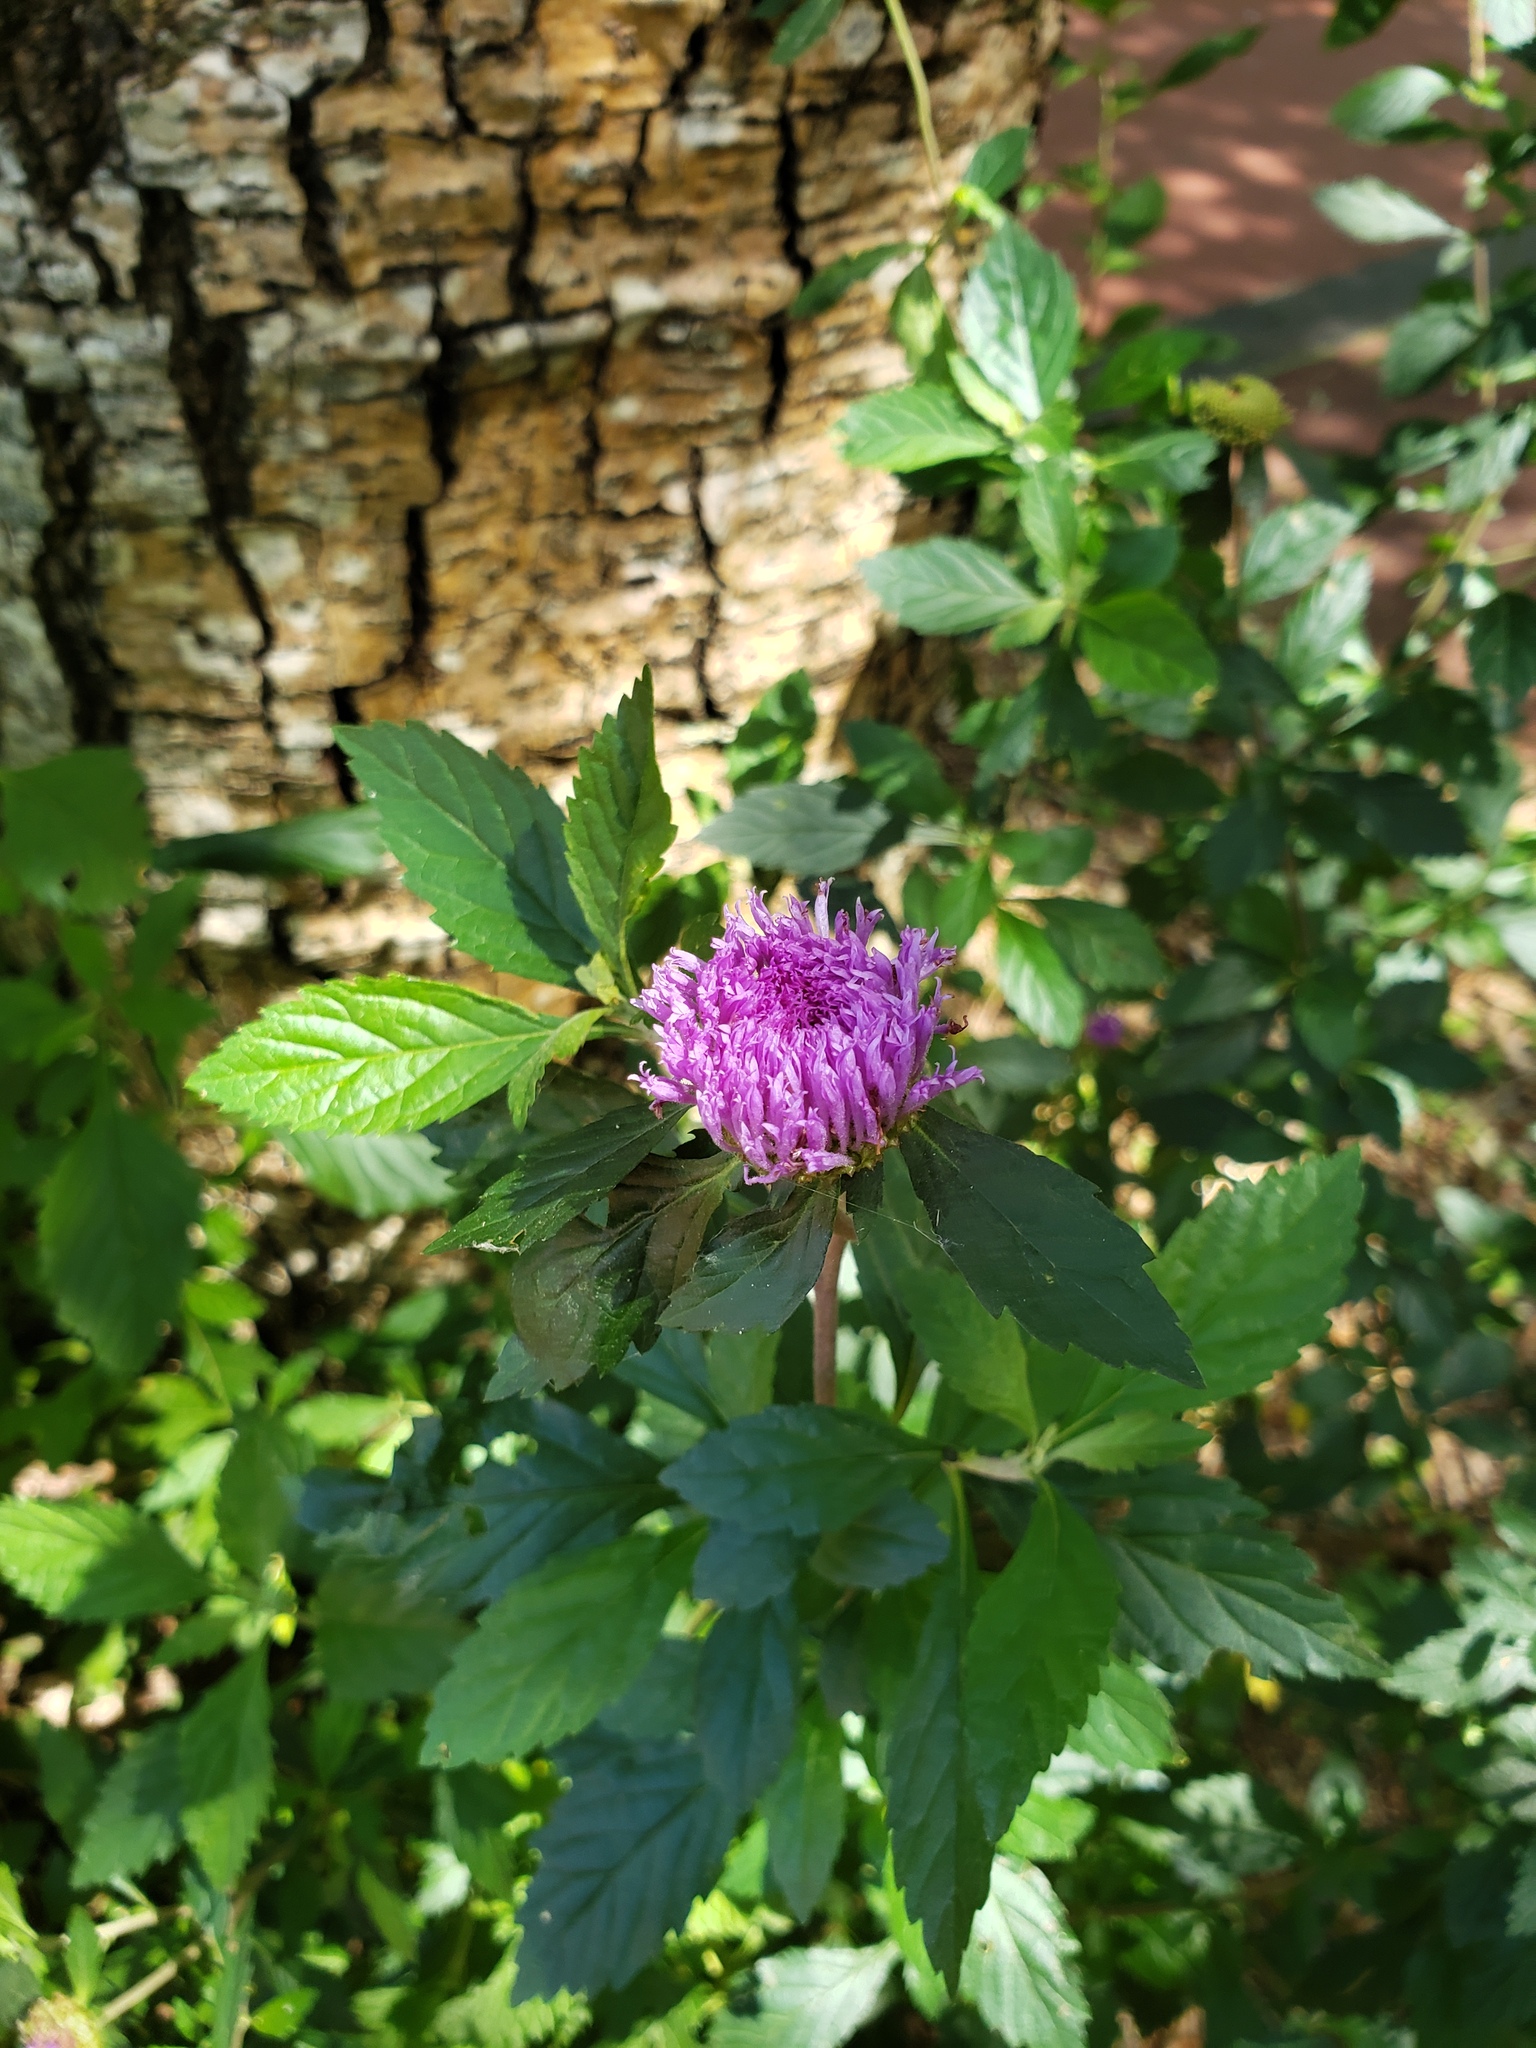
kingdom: Plantae
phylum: Tracheophyta
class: Magnoliopsida
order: Asterales
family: Asteraceae
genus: Centratherum
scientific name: Centratherum punctatum
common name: Larkdaisy
